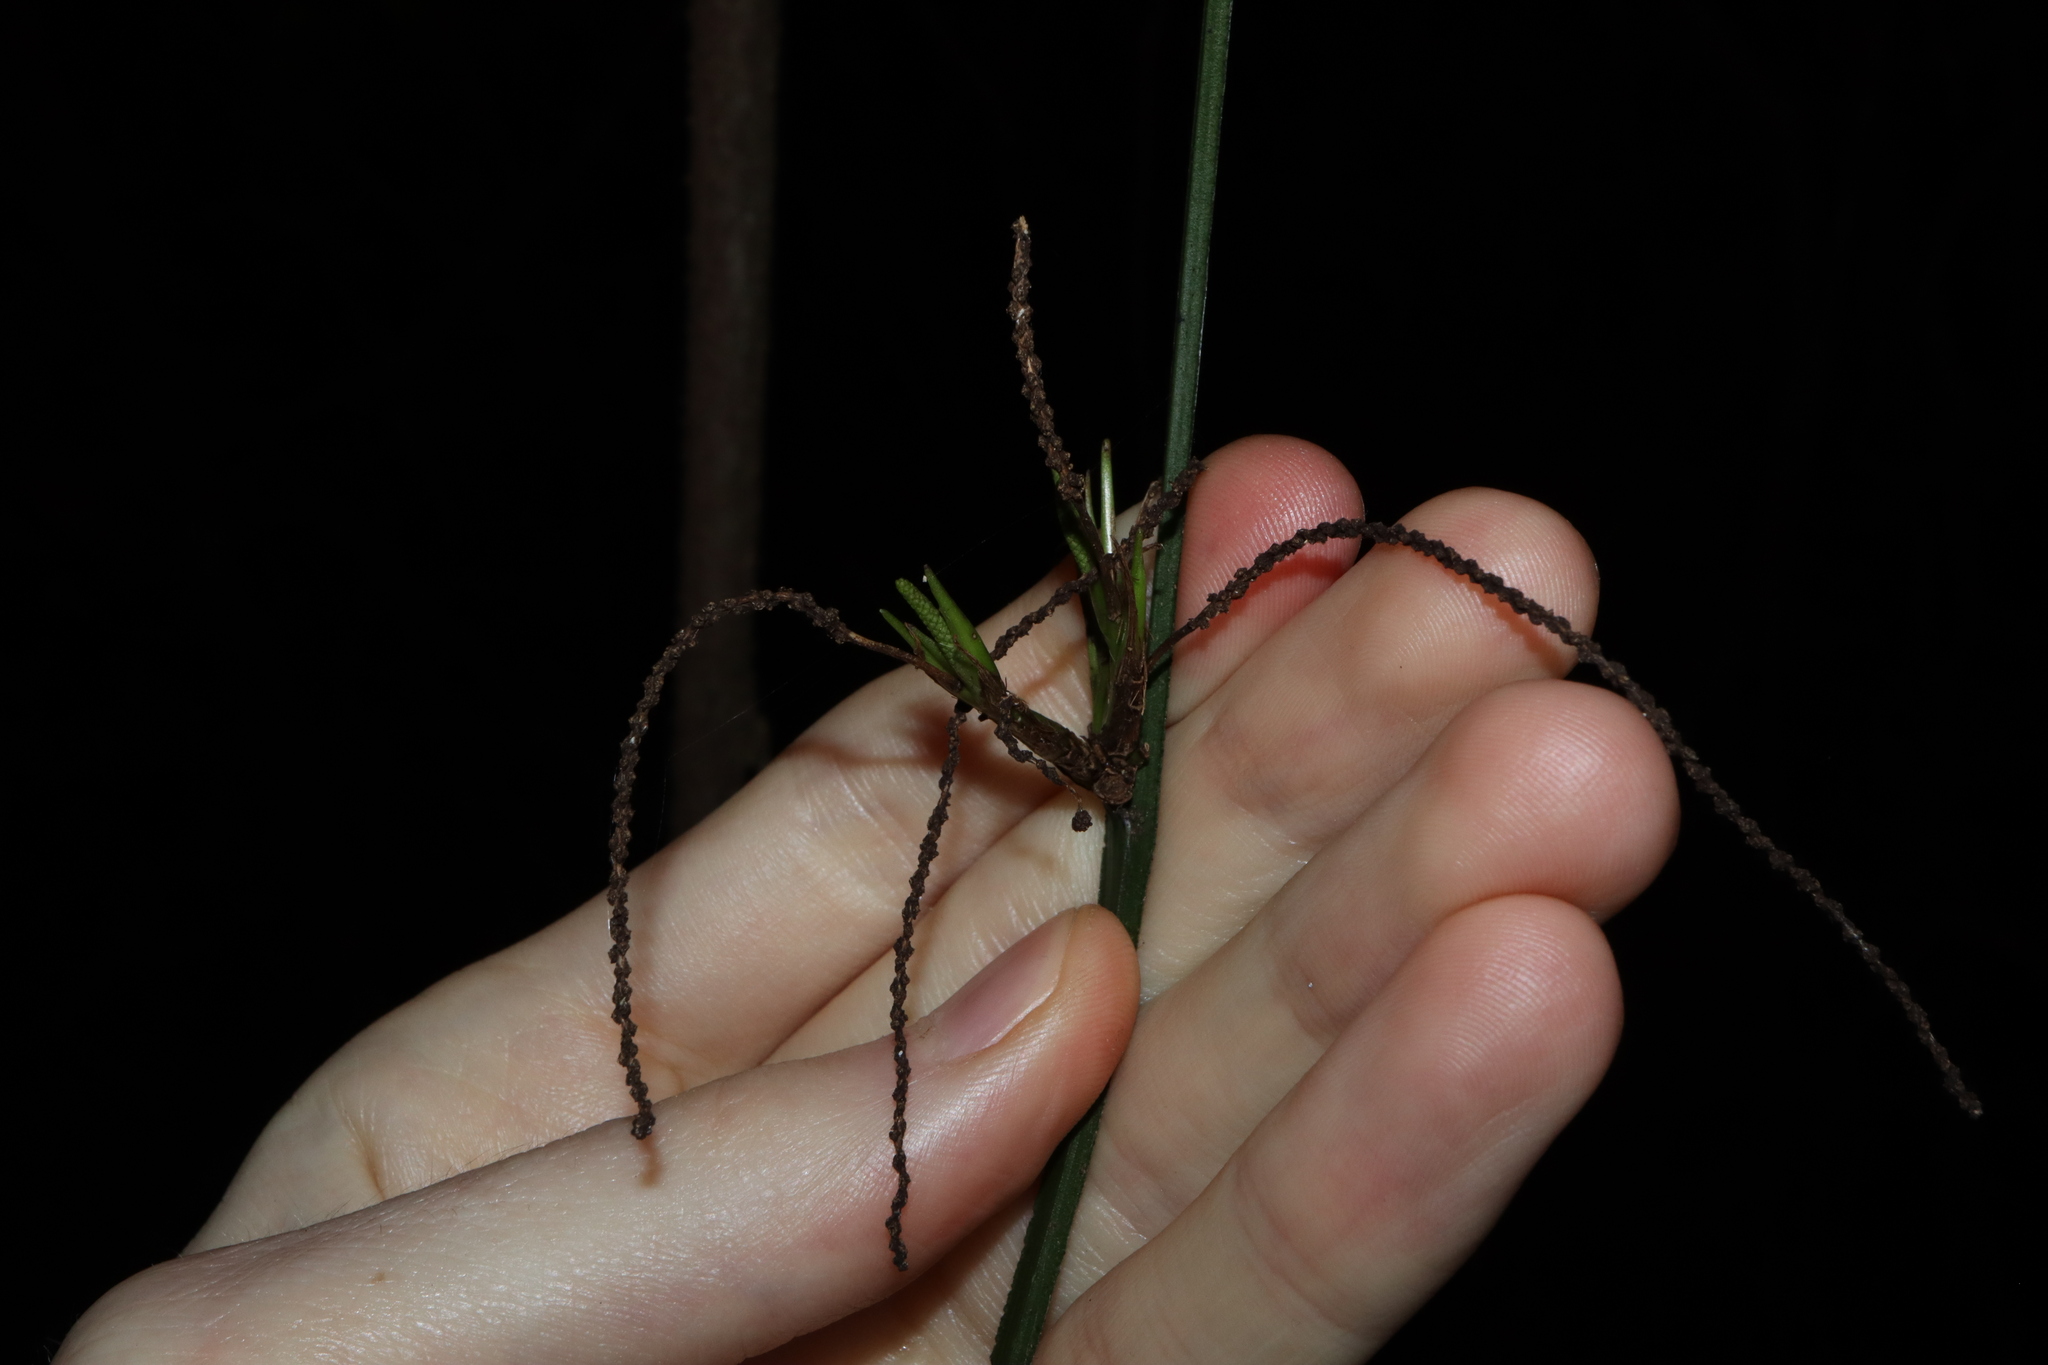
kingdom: Plantae
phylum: Tracheophyta
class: Liliopsida
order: Alismatales
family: Araceae
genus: Gymnostachys
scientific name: Gymnostachys anceps
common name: Settler's-flax
